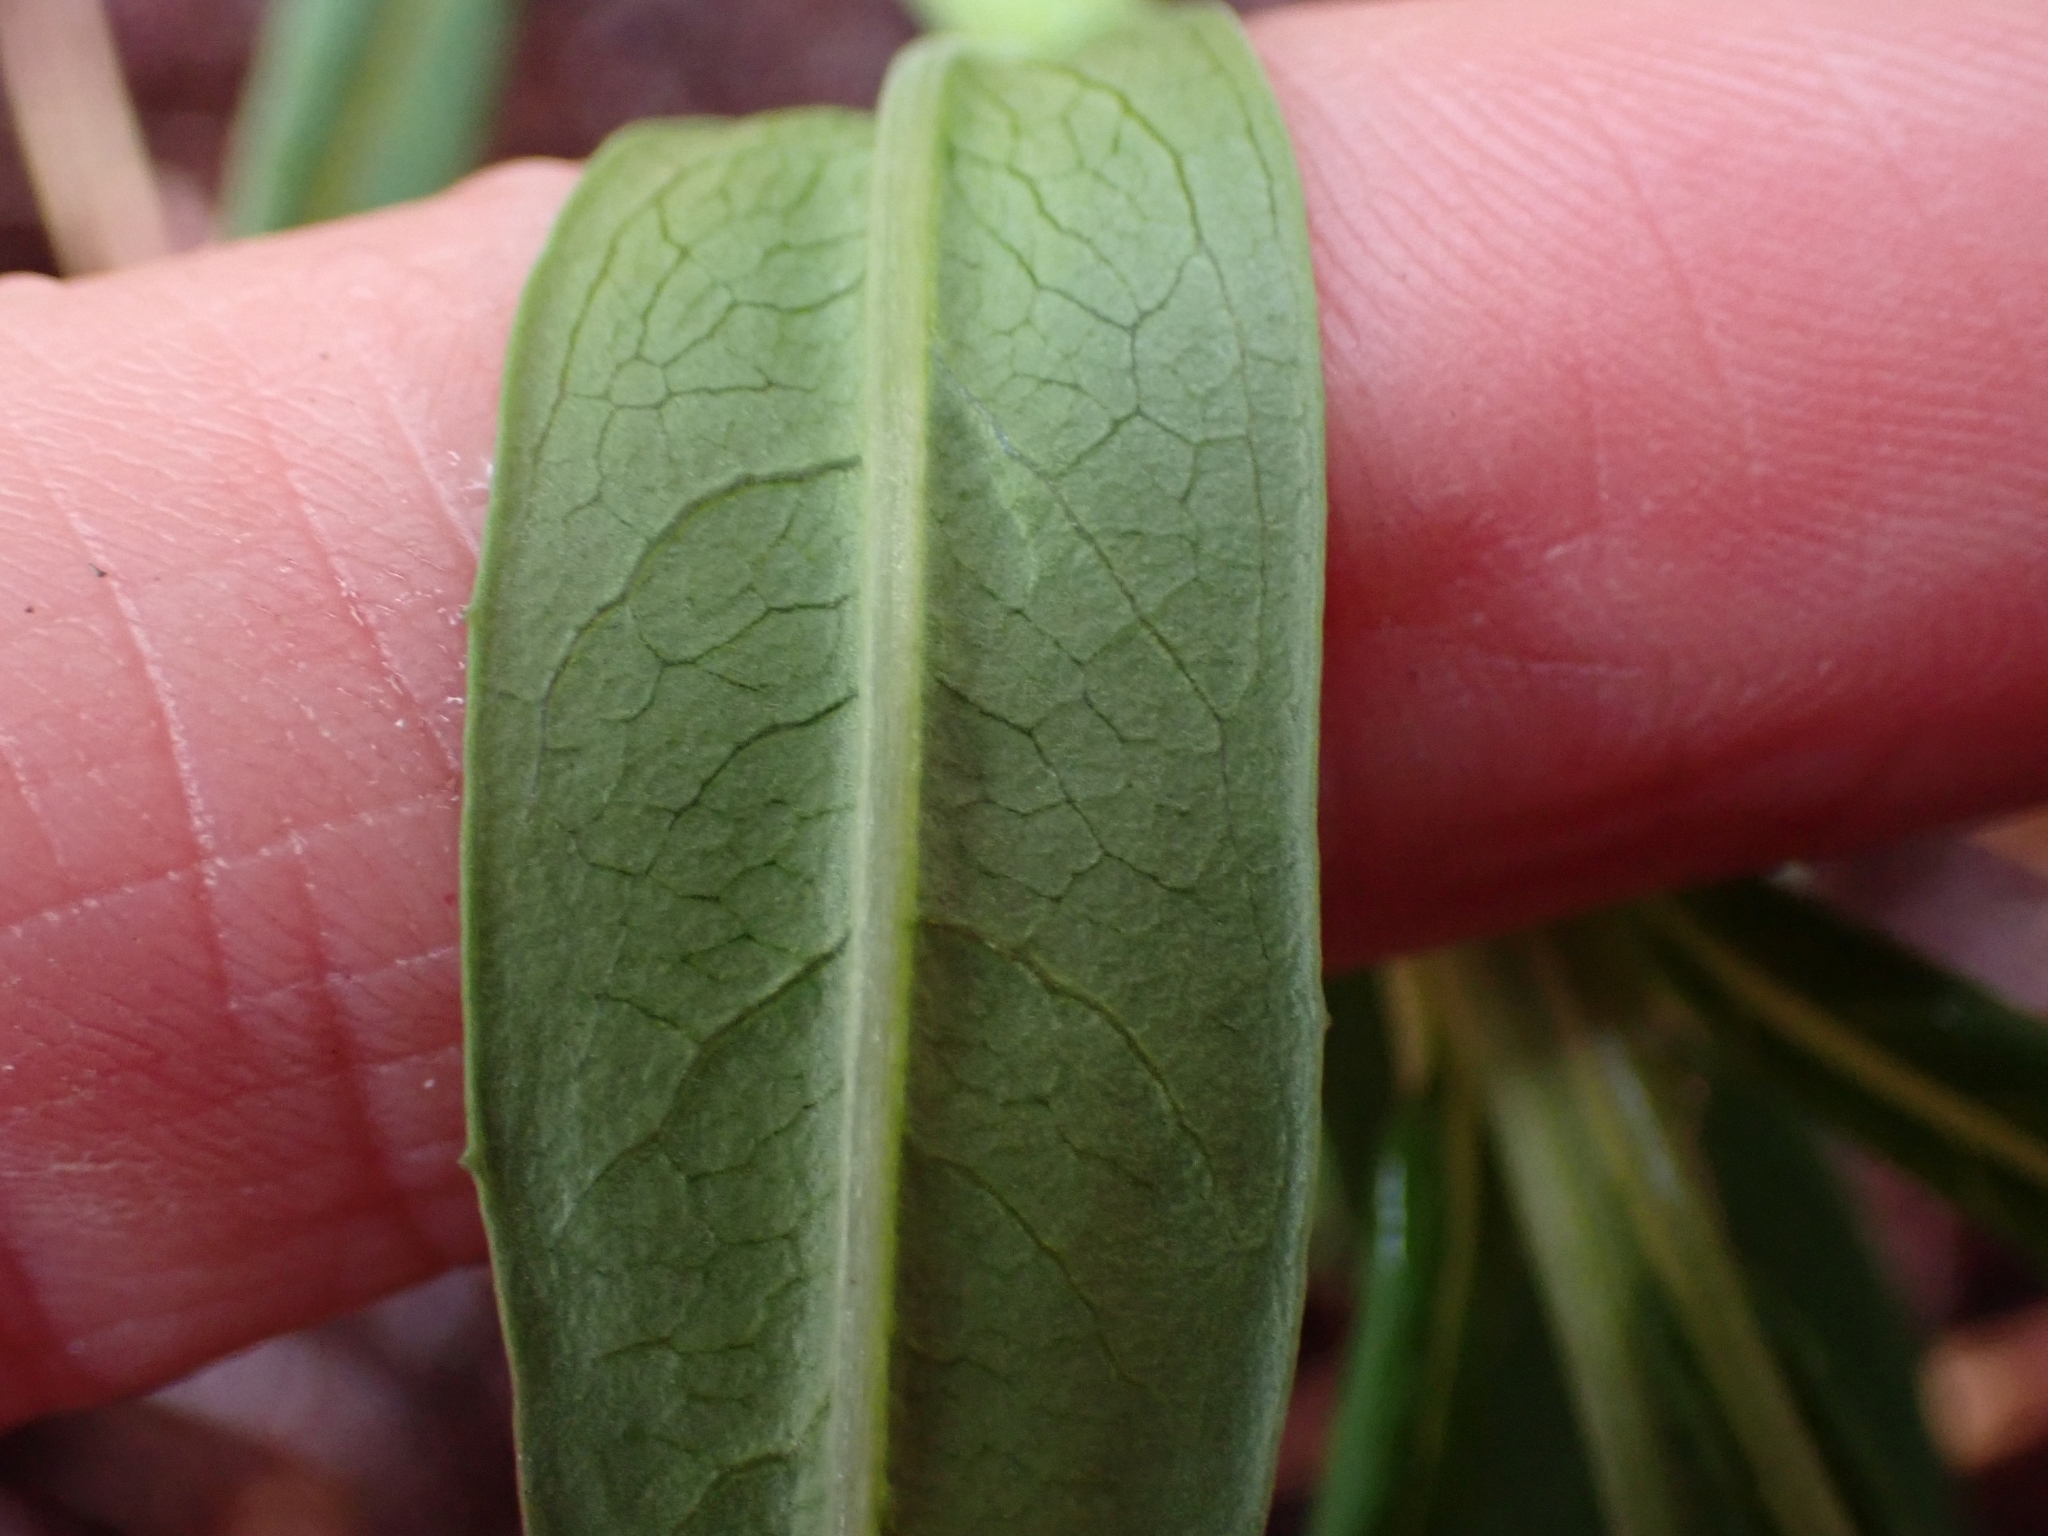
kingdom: Plantae
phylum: Tracheophyta
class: Magnoliopsida
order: Myrtales
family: Onagraceae
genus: Chamaenerion
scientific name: Chamaenerion angustifolium
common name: Fireweed
